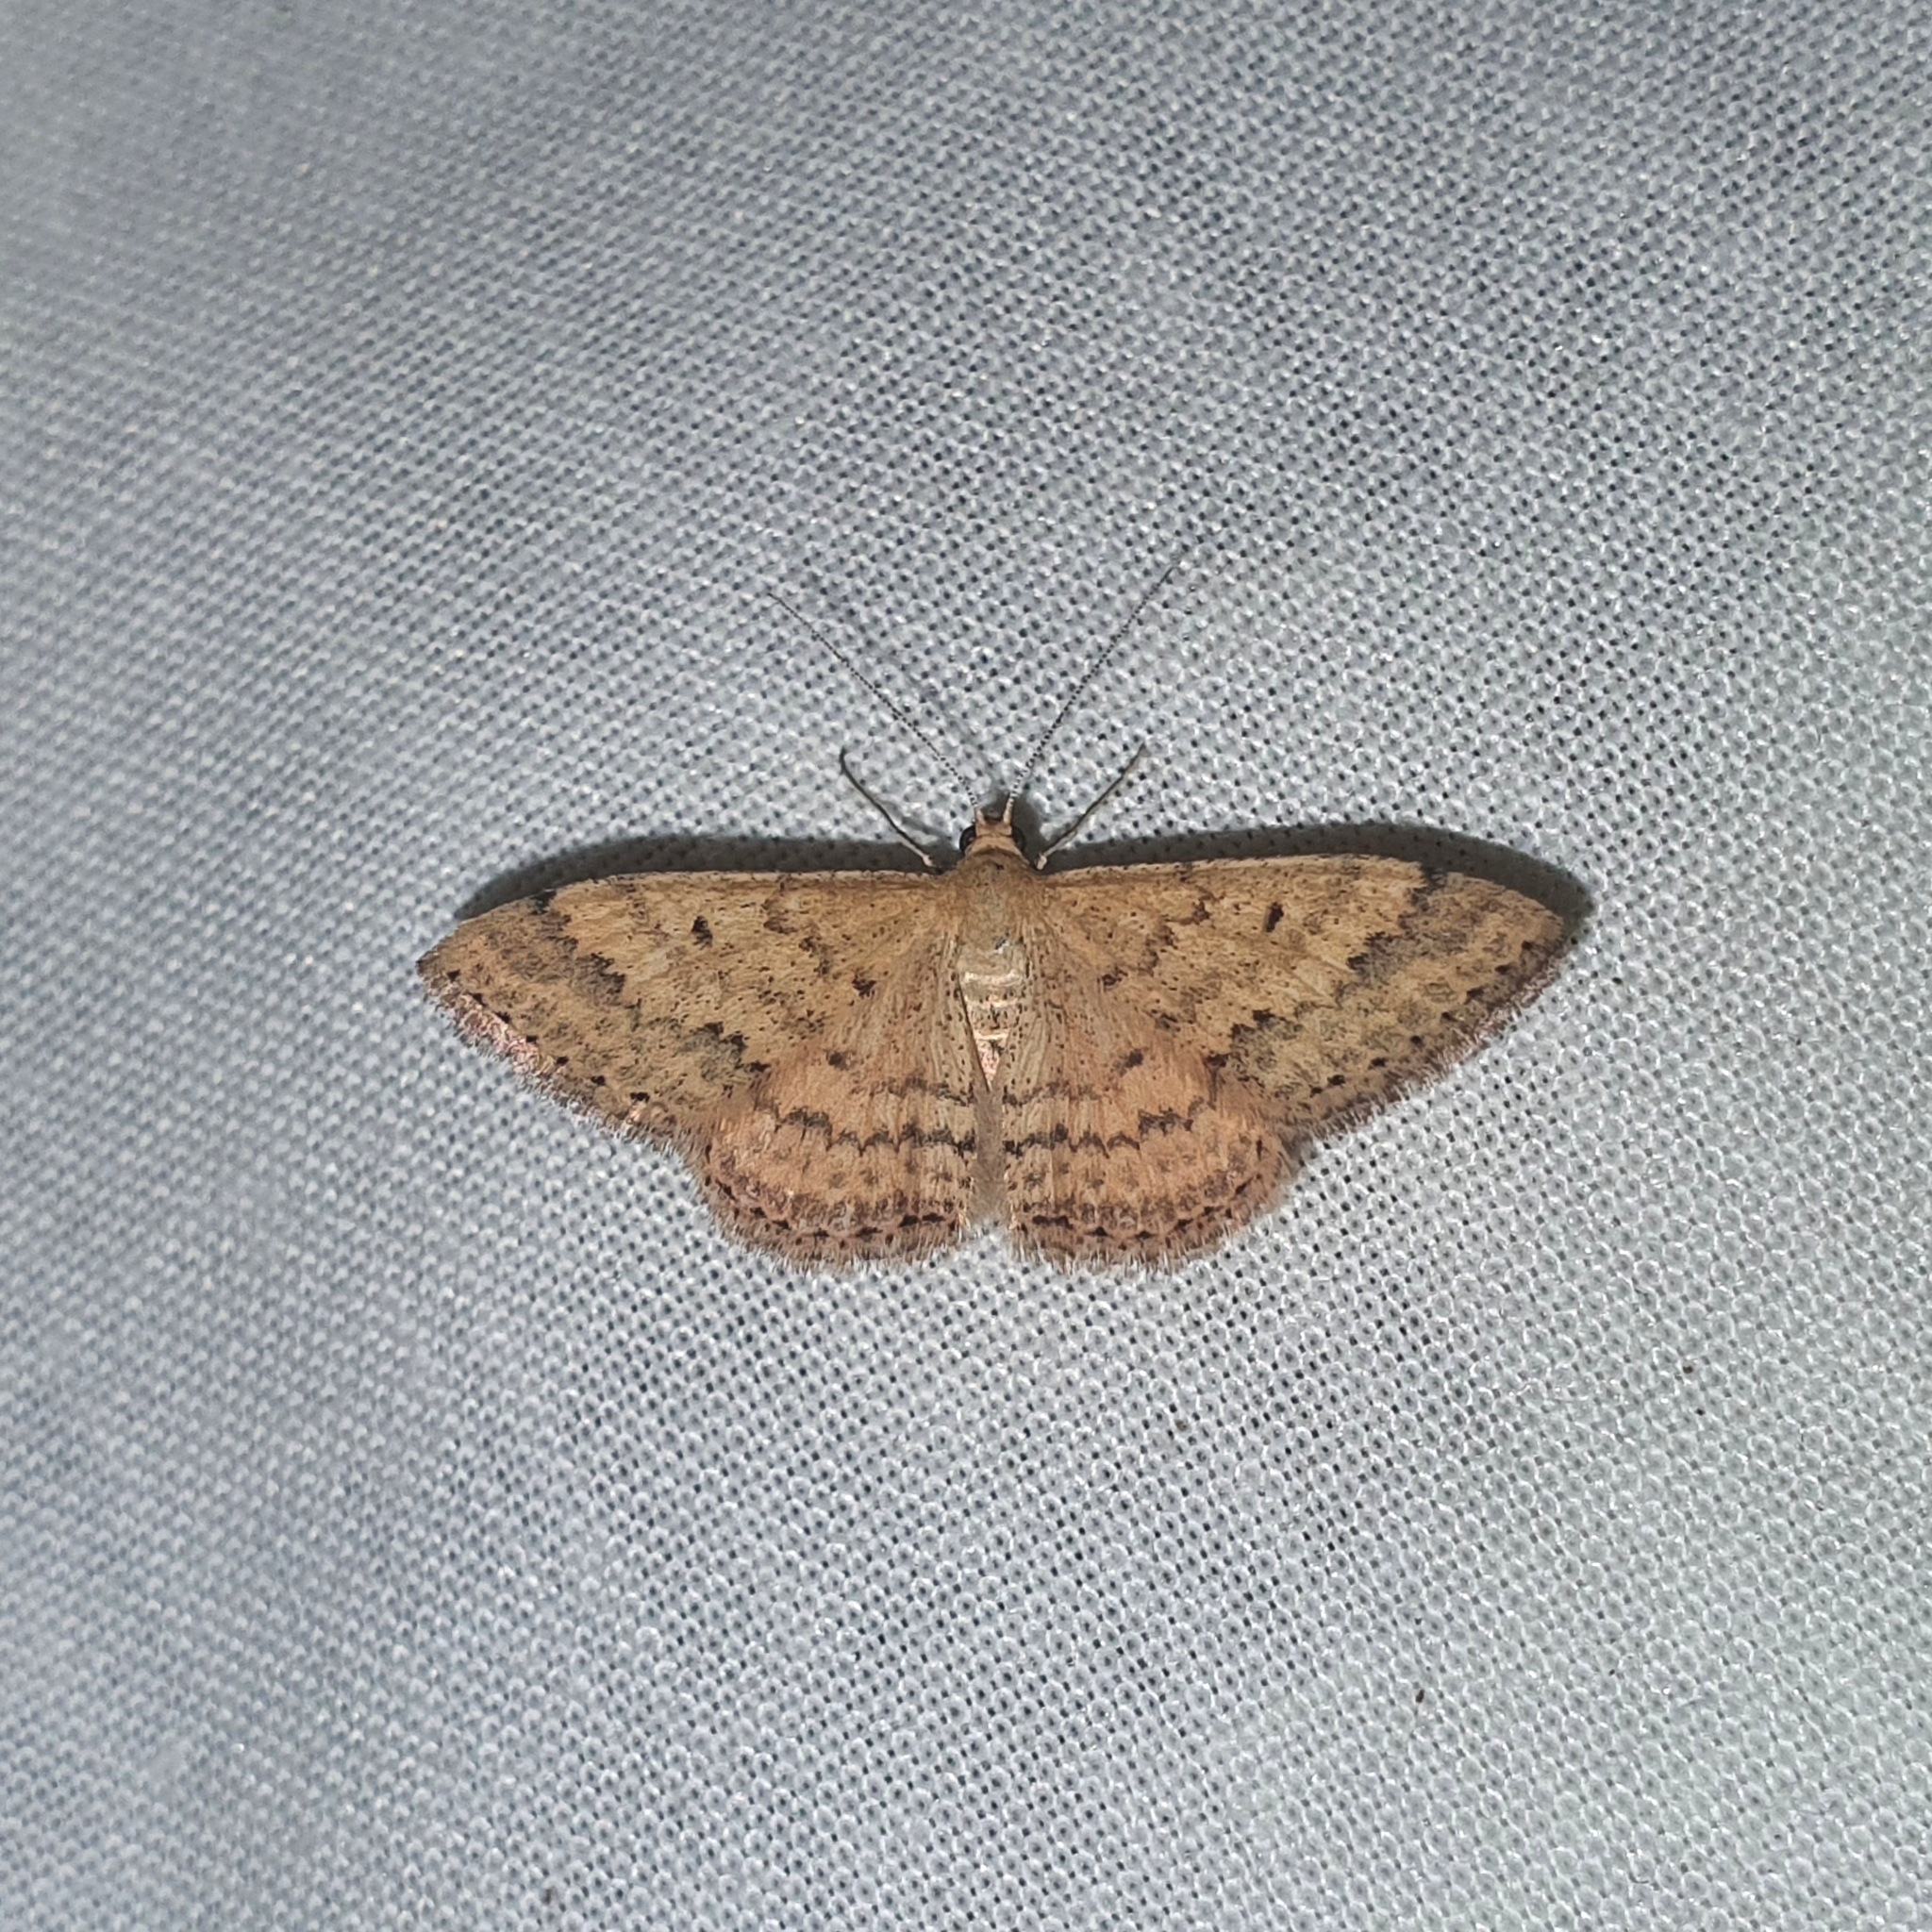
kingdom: Animalia
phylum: Arthropoda
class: Insecta
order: Lepidoptera
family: Geometridae
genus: Scopula
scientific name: Scopula rubraria
